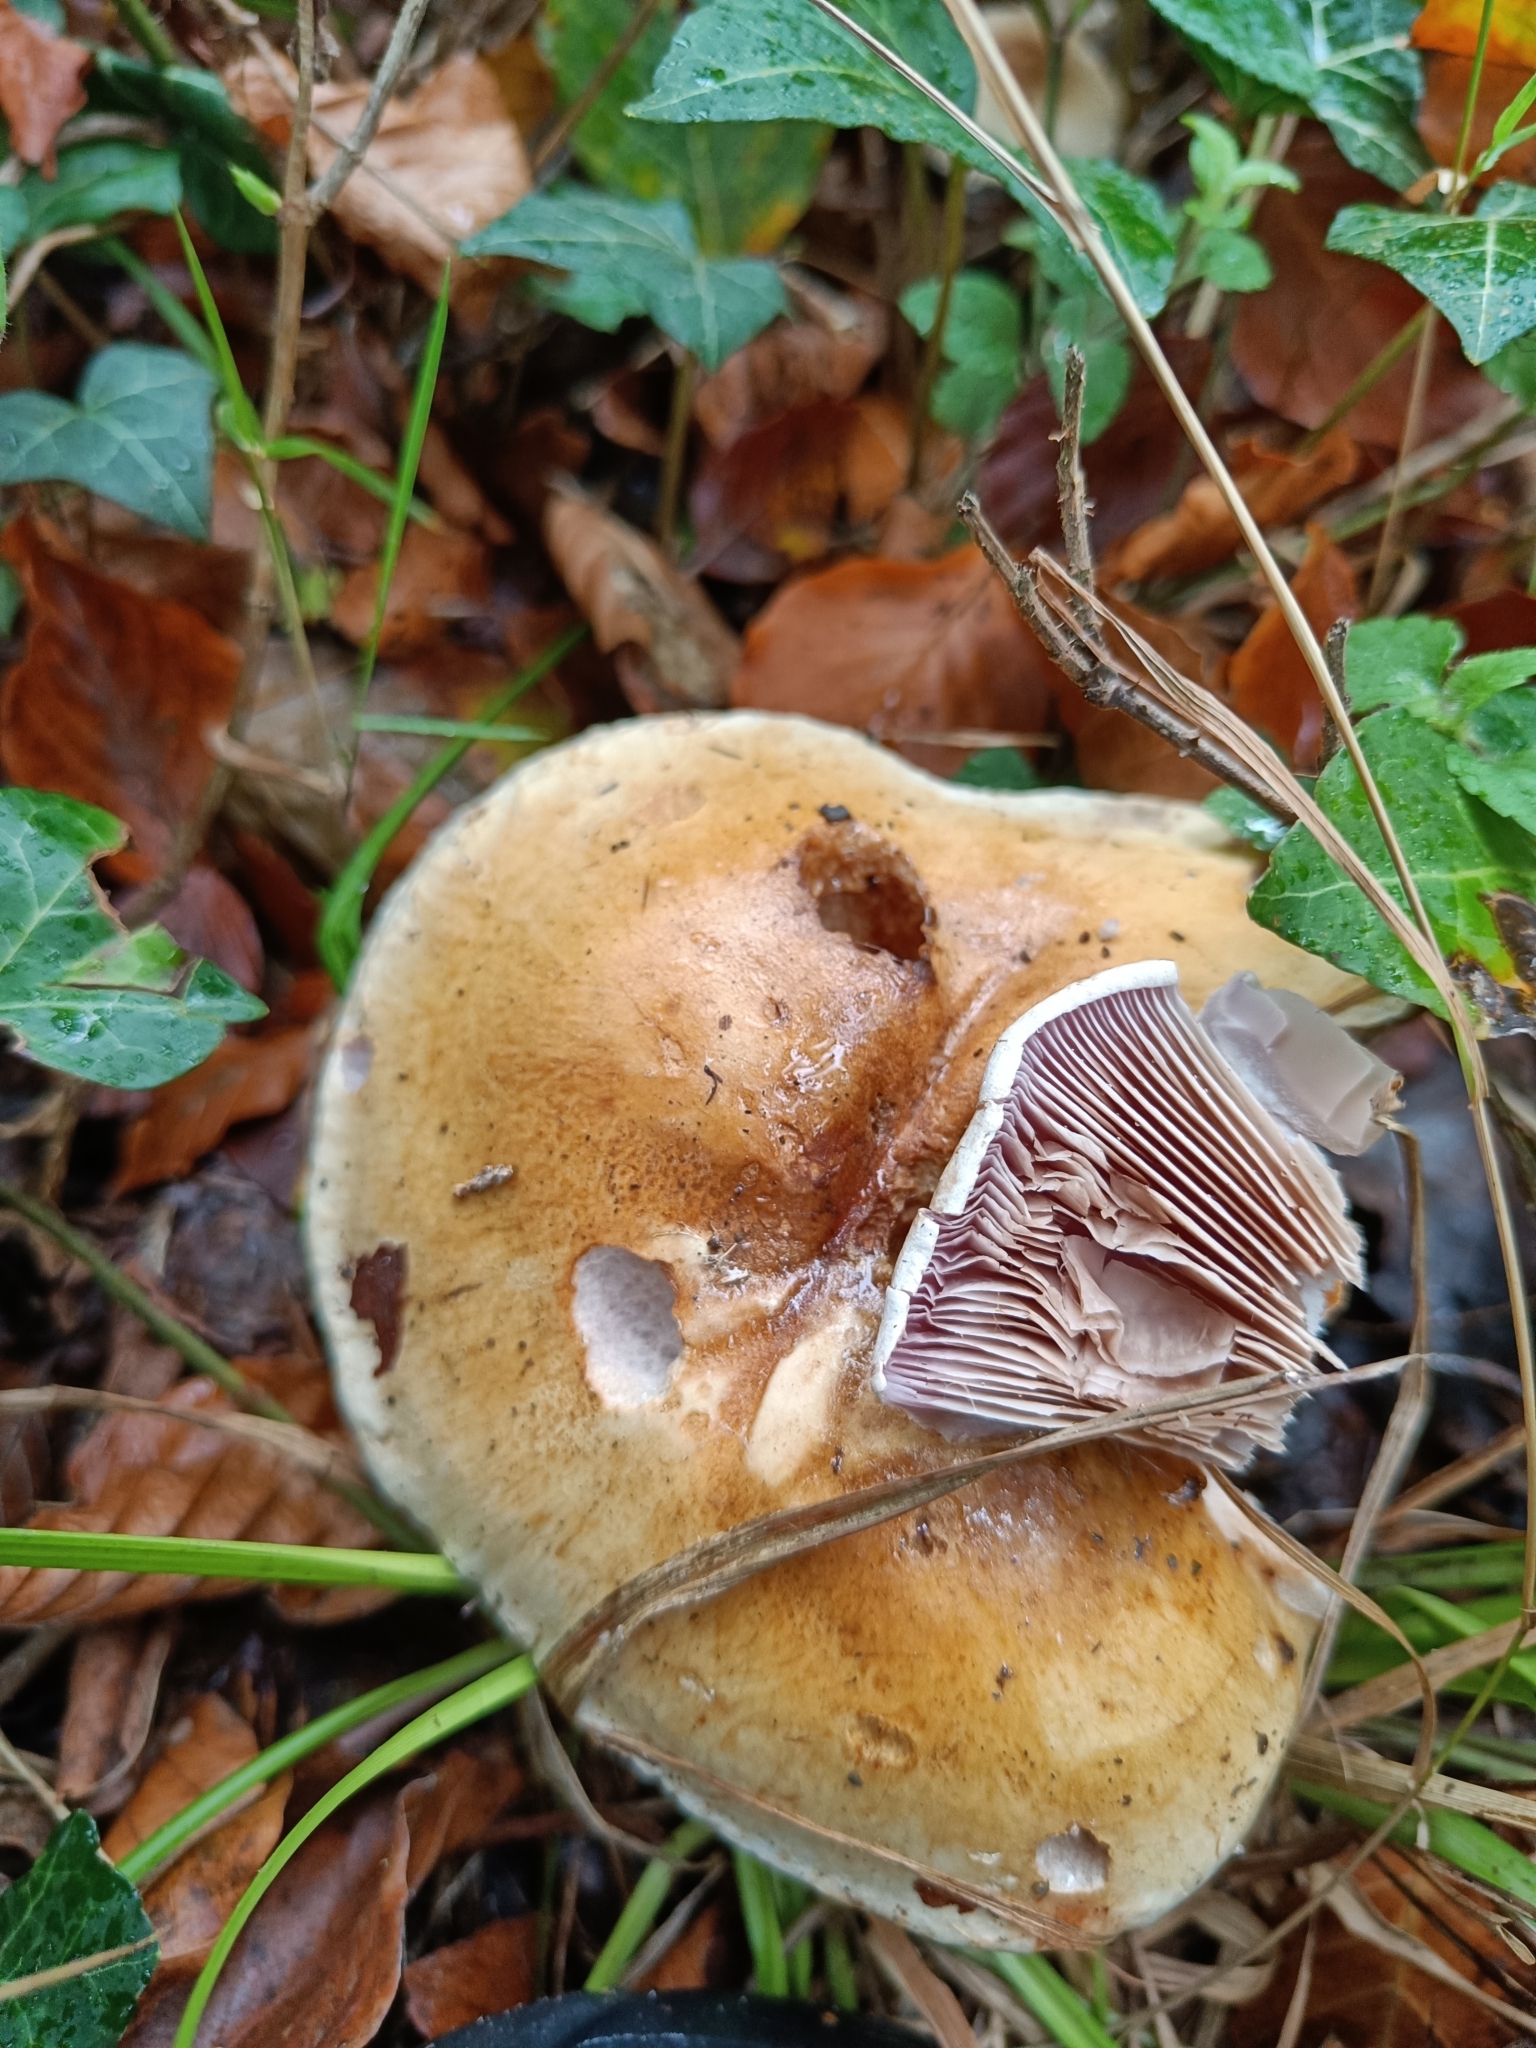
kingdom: Fungi
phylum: Basidiomycota
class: Agaricomycetes
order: Agaricales
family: Cortinariaceae
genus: Cortinarius
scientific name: Cortinarius largus
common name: Big-bellied webcap
